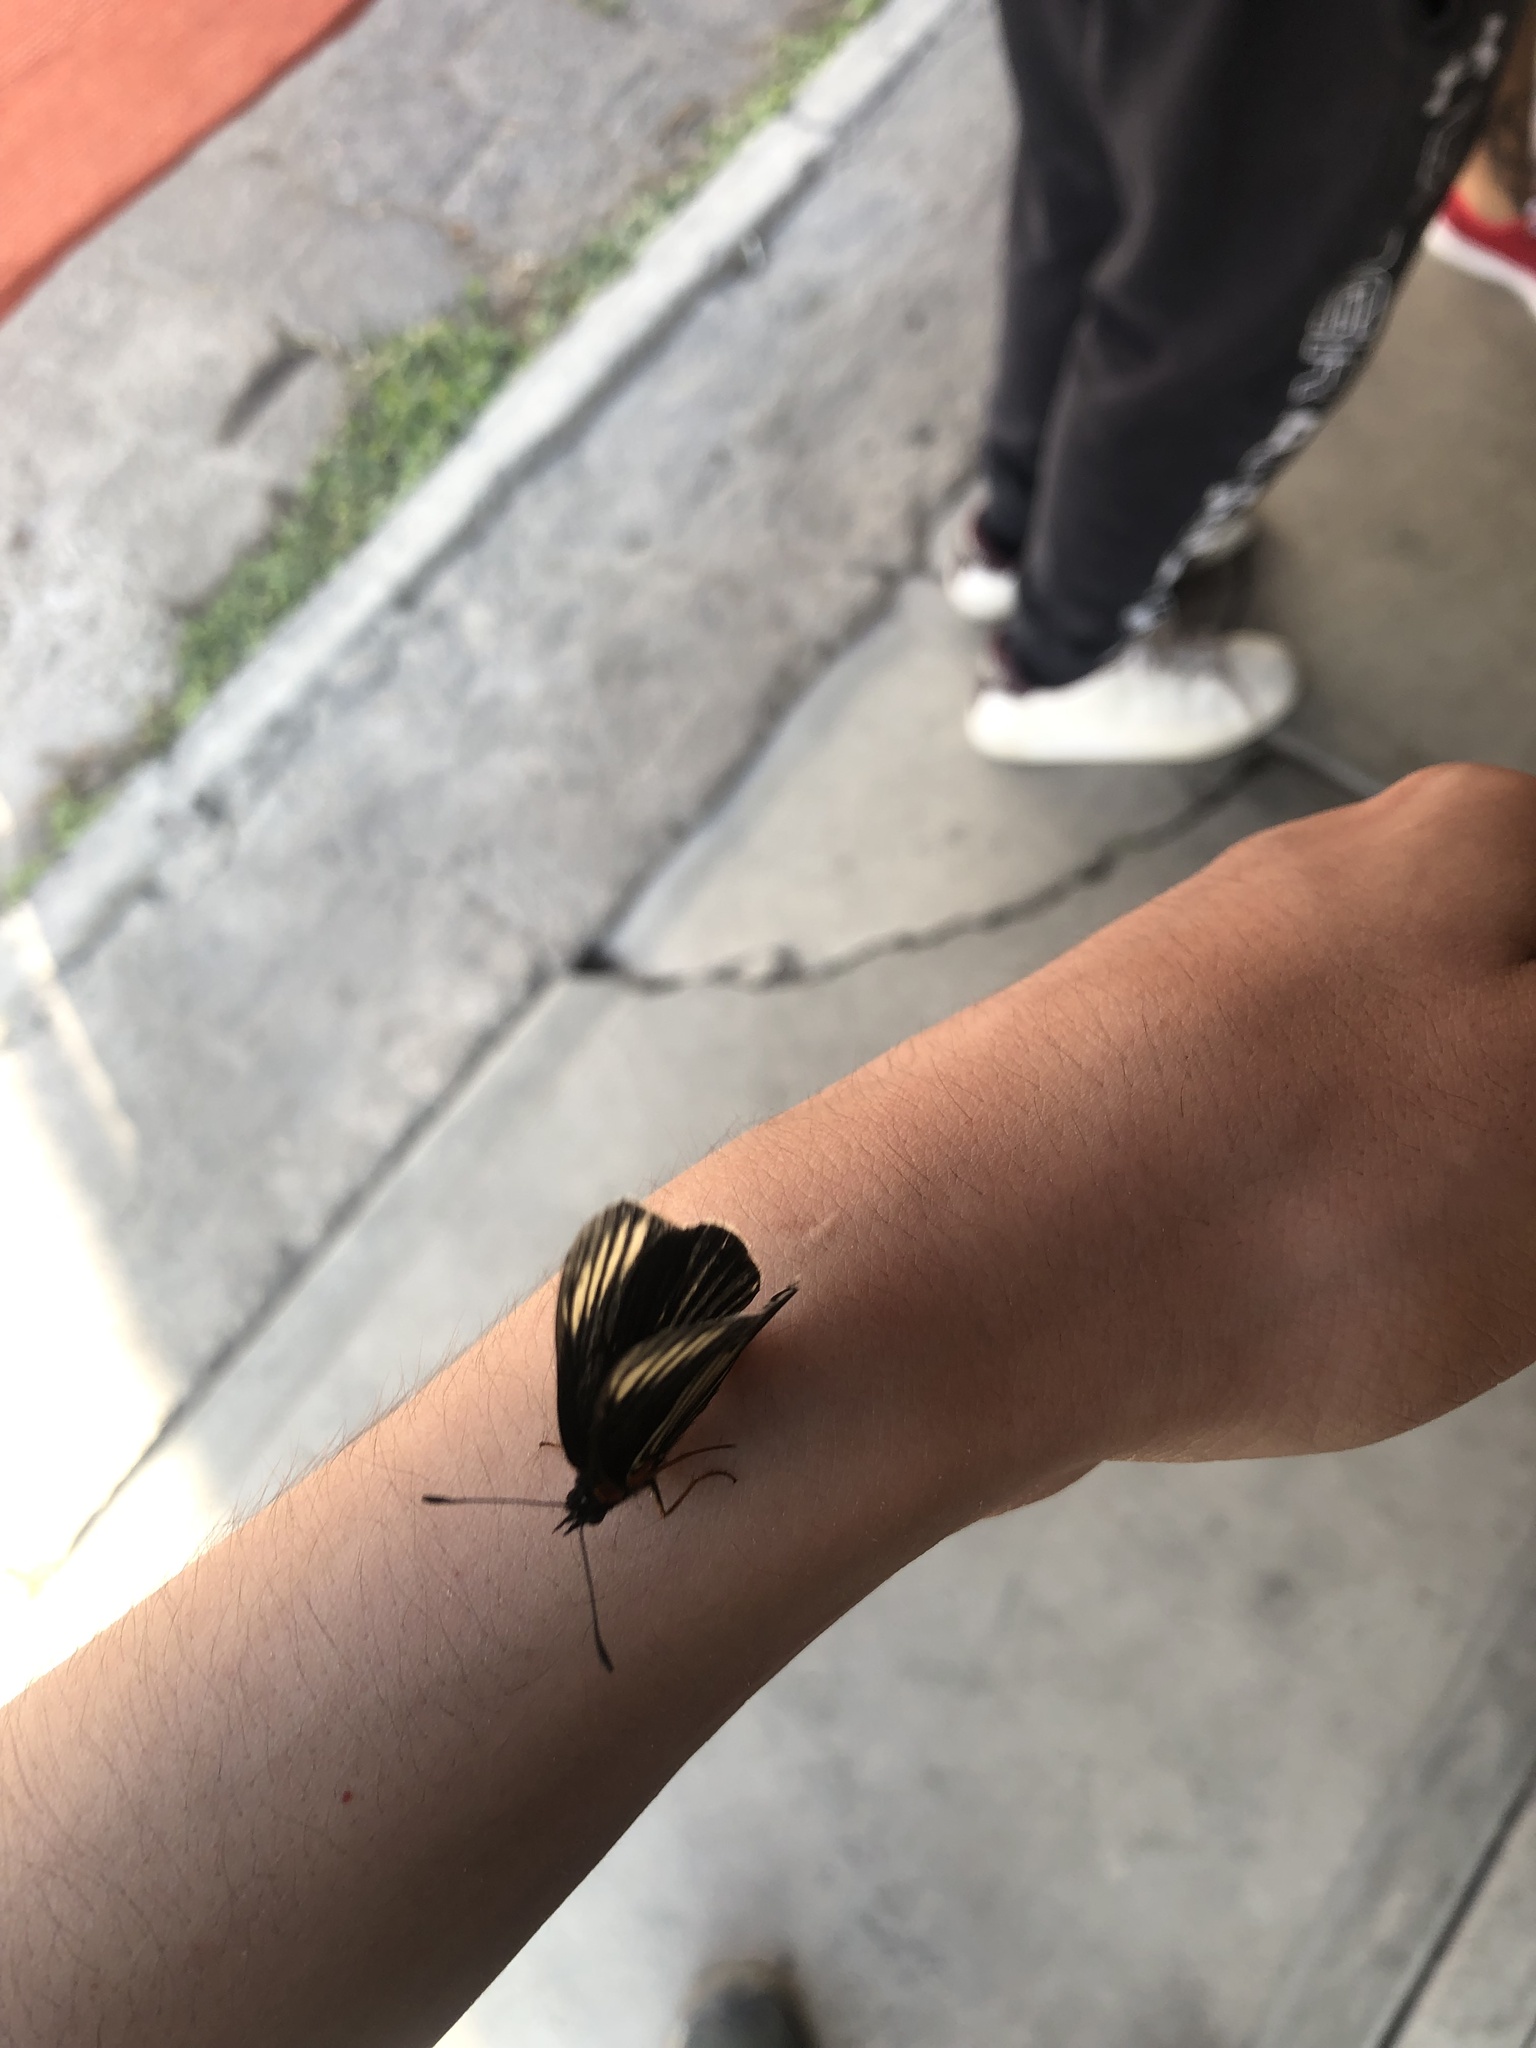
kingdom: Animalia
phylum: Arthropoda
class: Insecta
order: Lepidoptera
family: Nymphalidae
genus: Chlosyne
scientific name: Chlosyne ehrenbergii
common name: White-rayed patch
